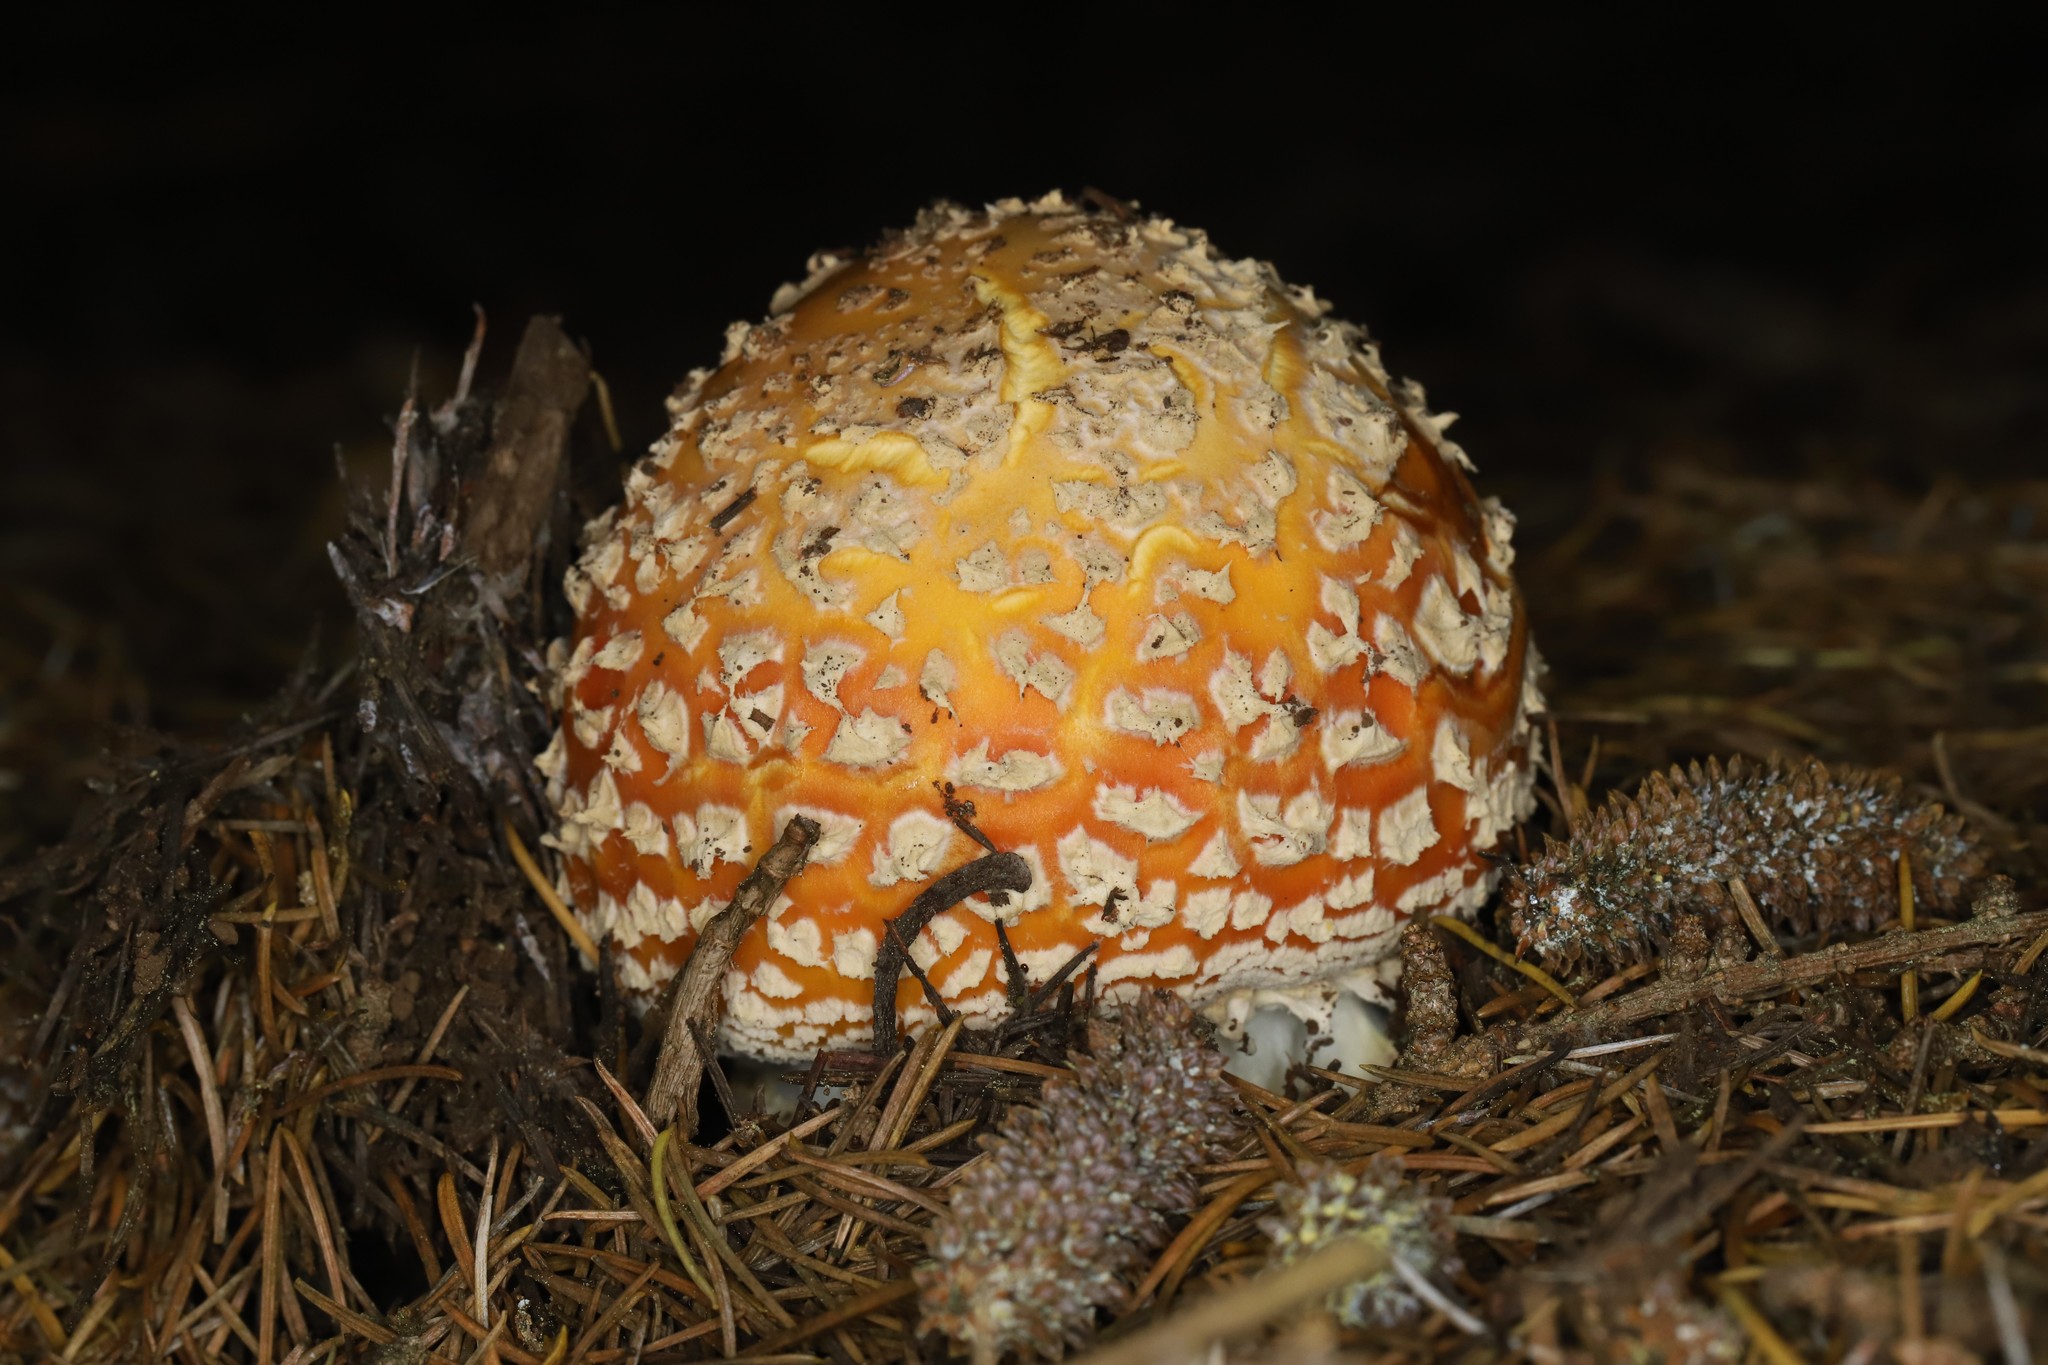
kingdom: Fungi
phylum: Basidiomycota
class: Agaricomycetes
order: Agaricales
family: Amanitaceae
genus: Amanita
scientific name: Amanita muscaria
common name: Fly agaric
